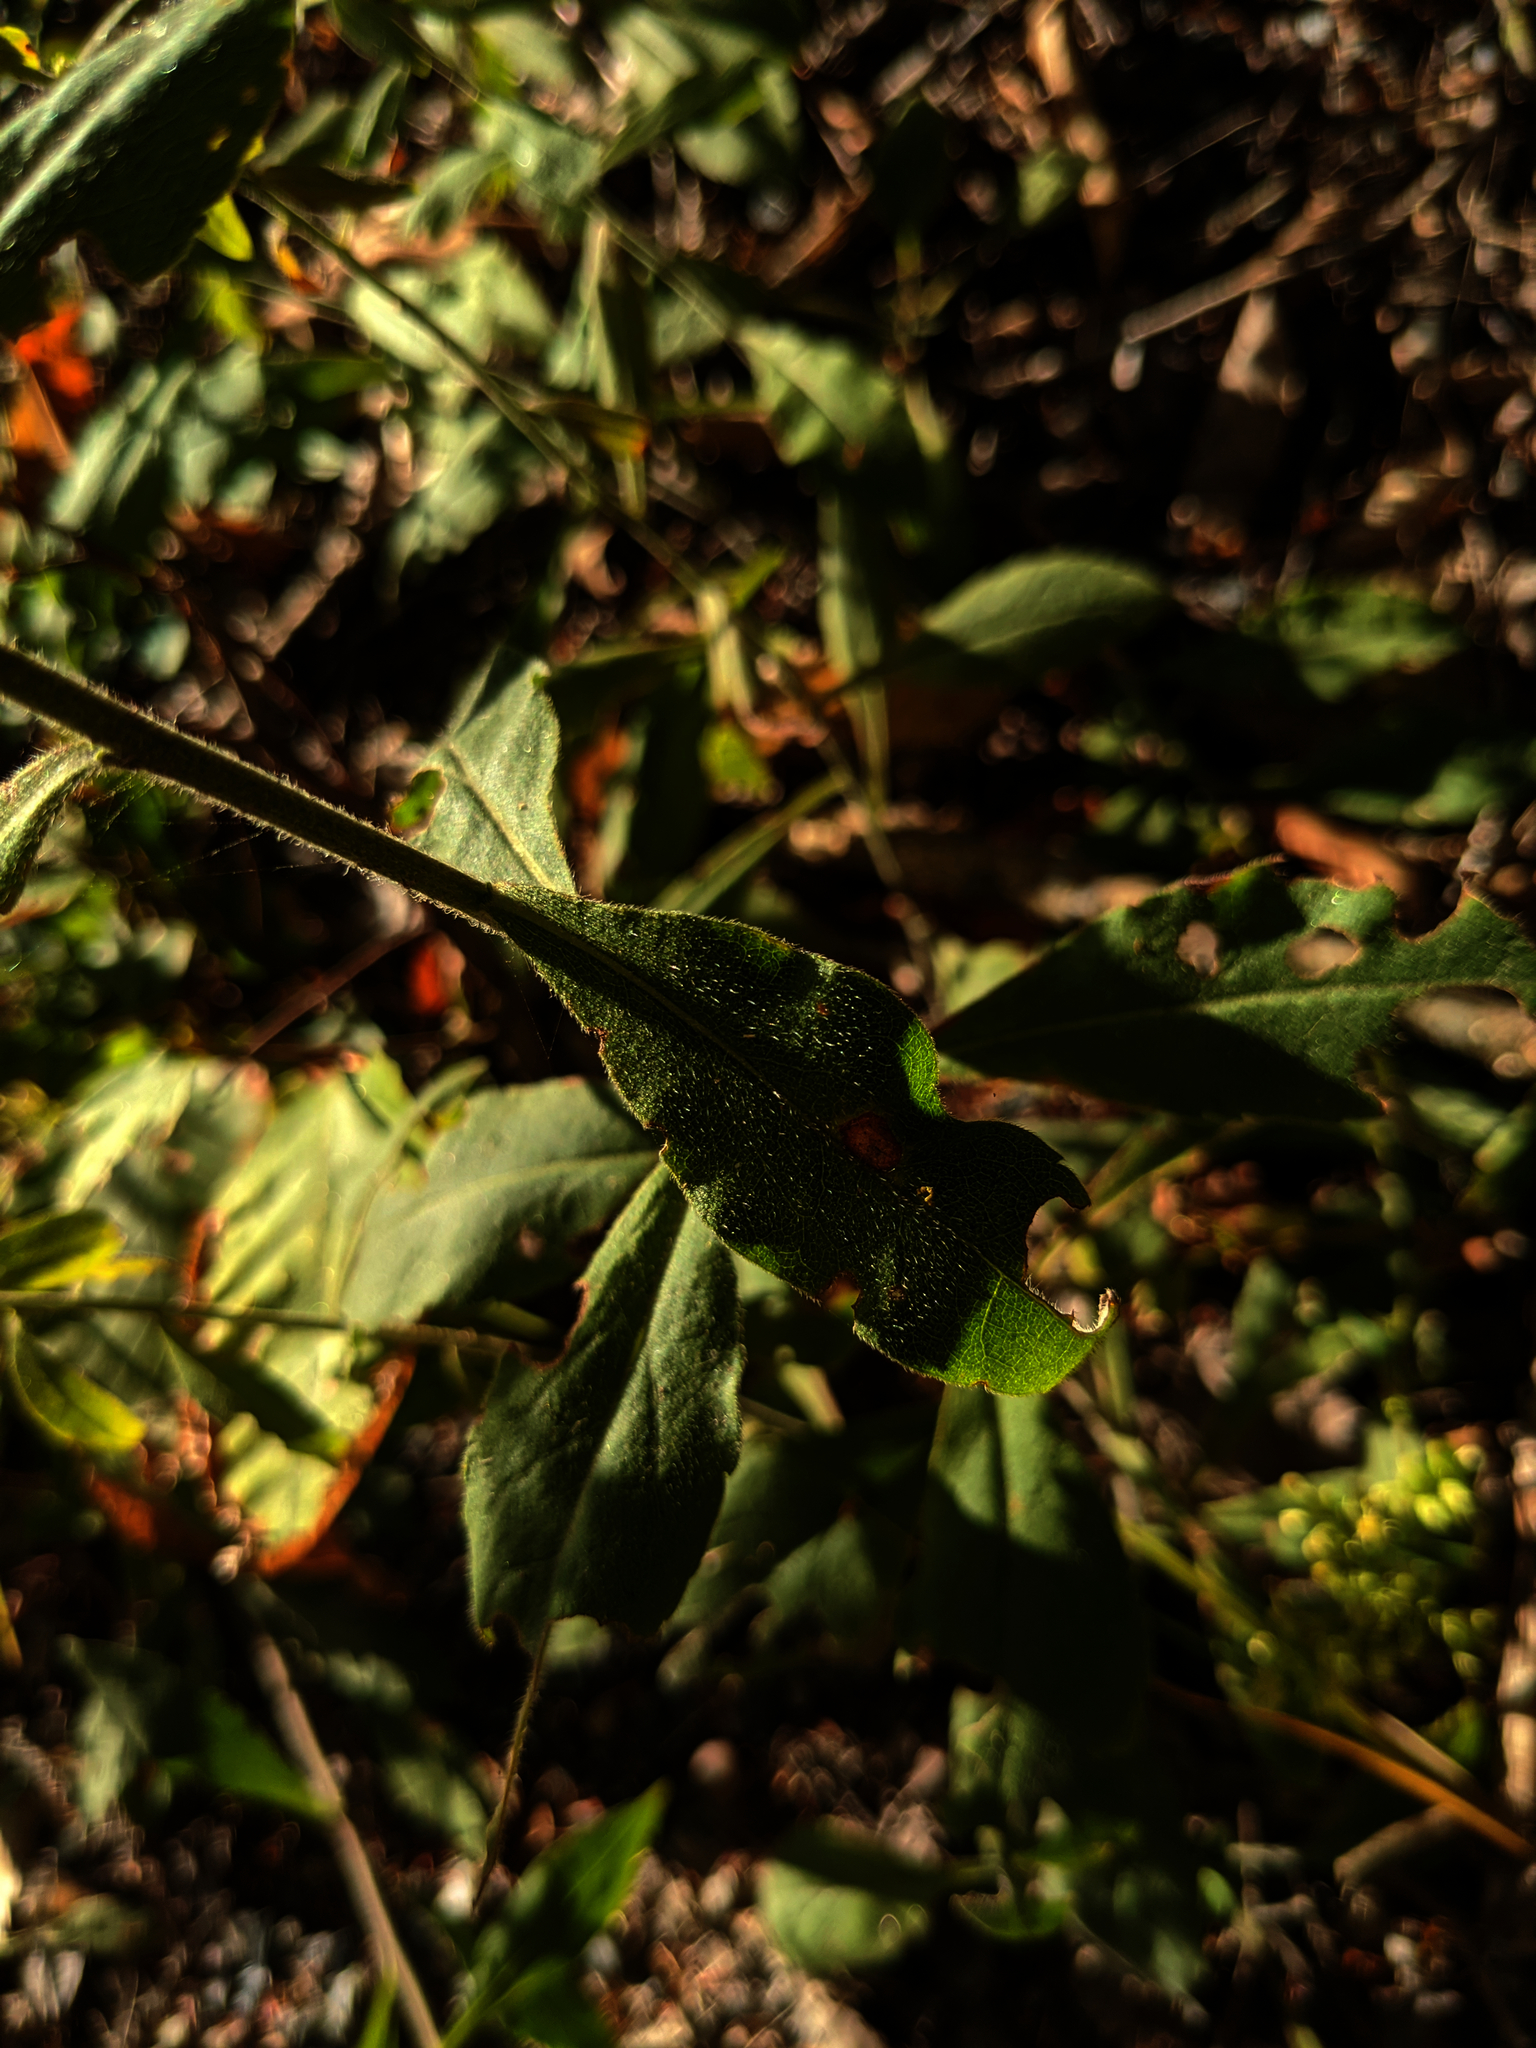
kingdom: Plantae
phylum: Tracheophyta
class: Magnoliopsida
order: Asterales
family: Asteraceae
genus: Solidago
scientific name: Solidago bicolor
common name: Silverrod
